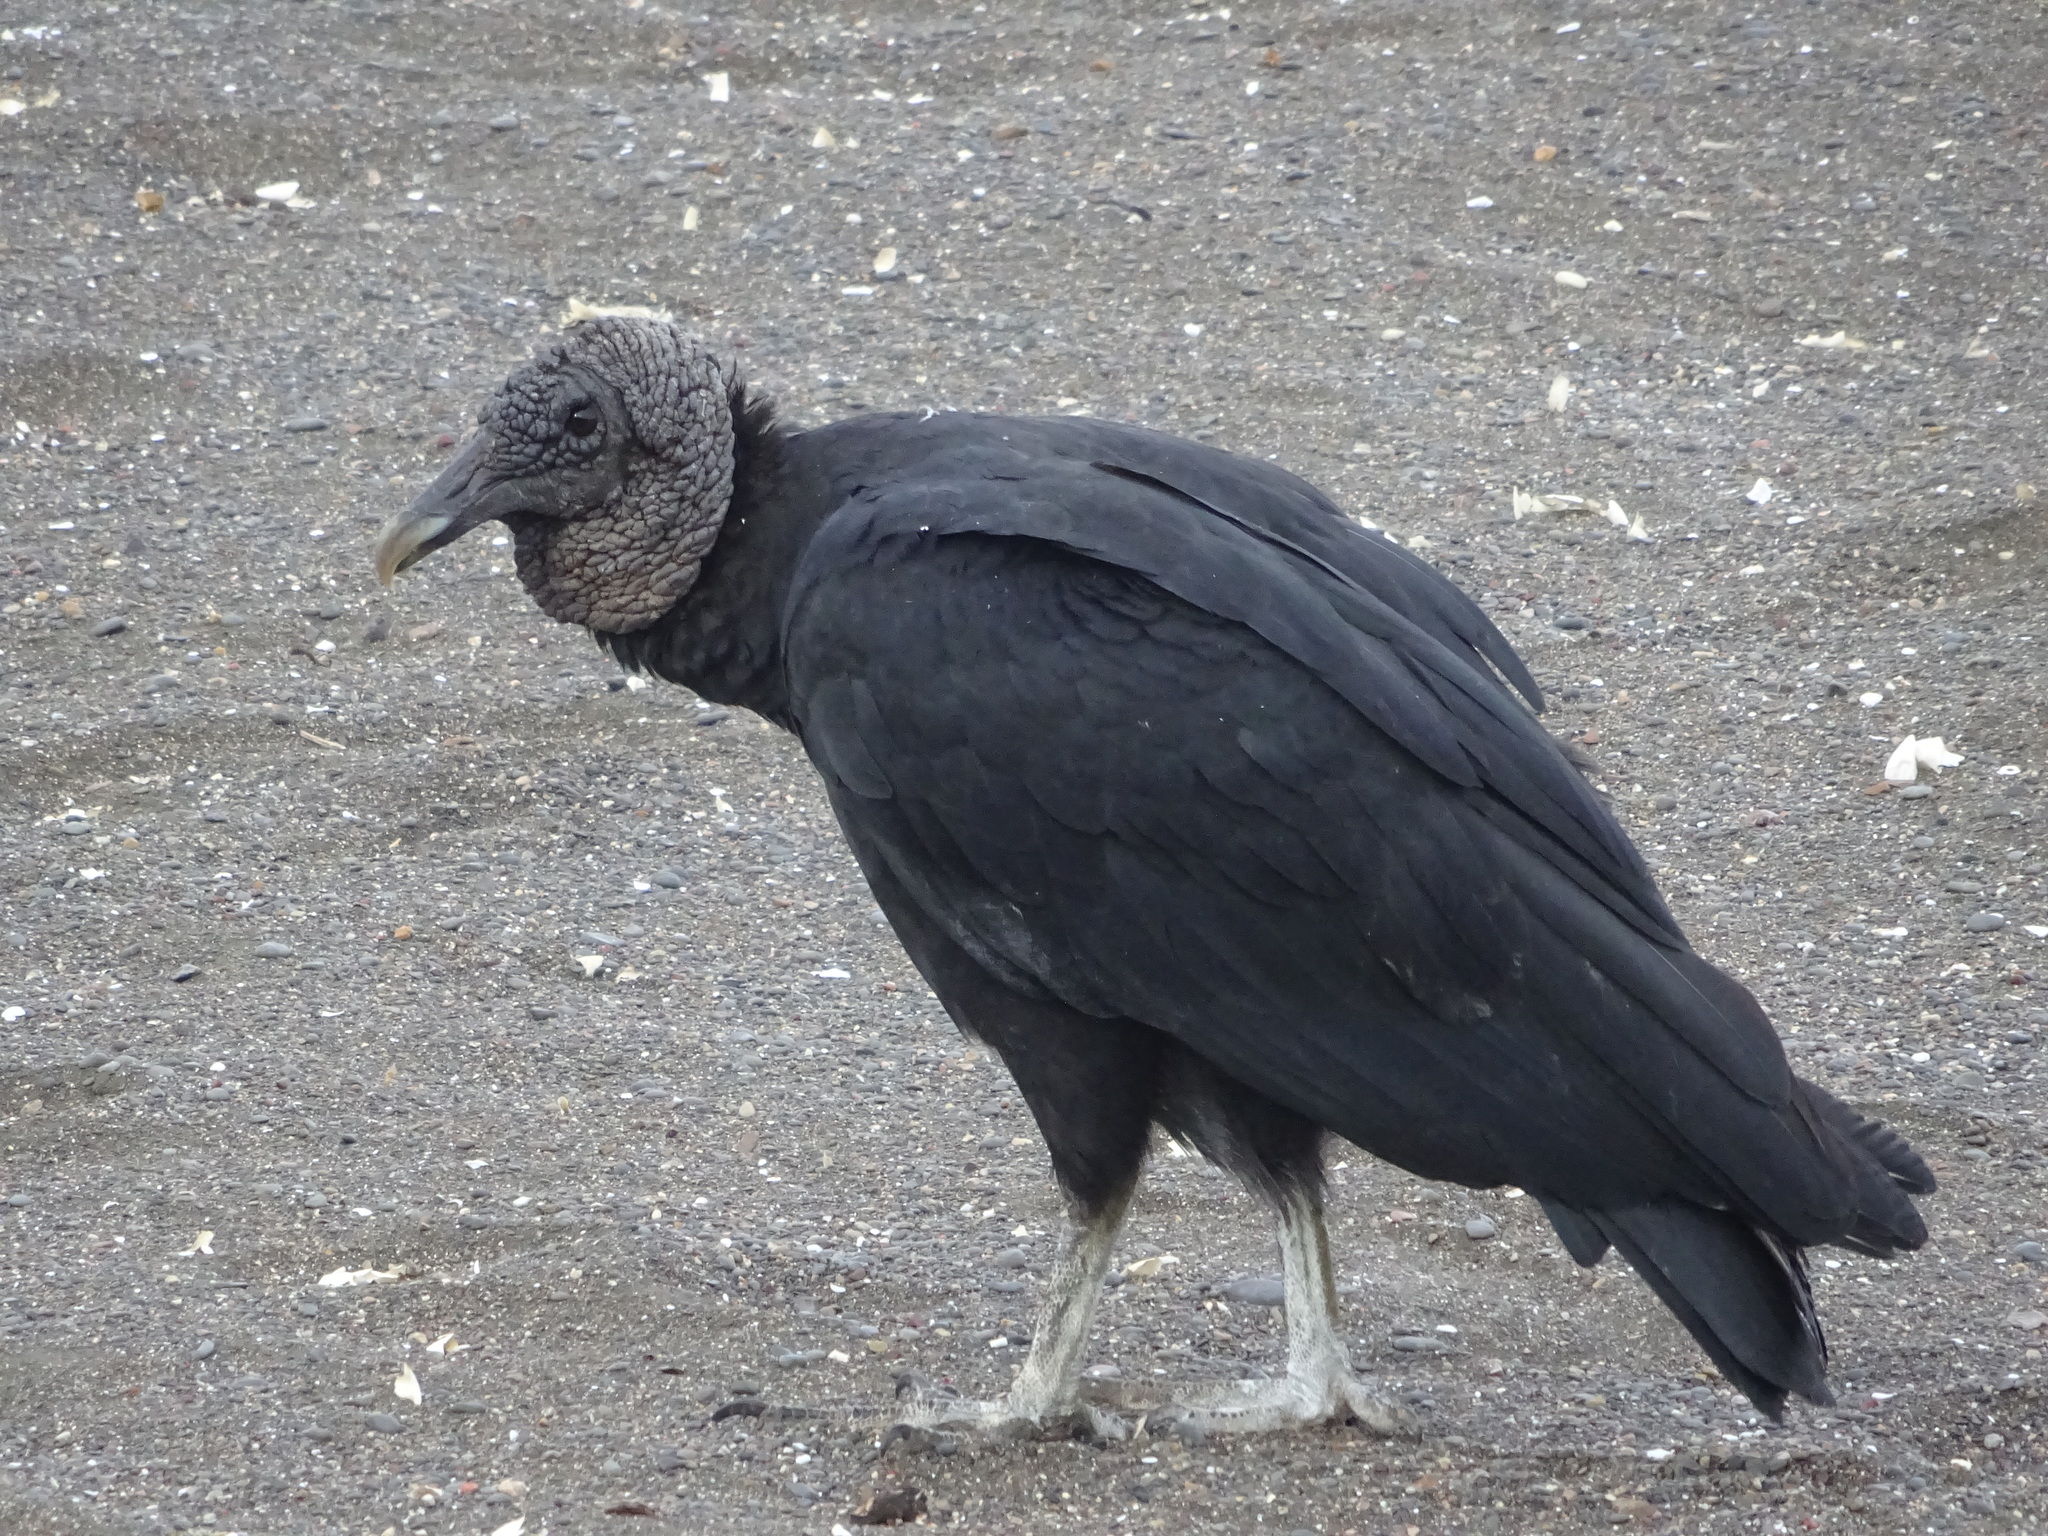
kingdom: Animalia
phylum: Chordata
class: Aves
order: Accipitriformes
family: Cathartidae
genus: Coragyps
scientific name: Coragyps atratus
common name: Black vulture
